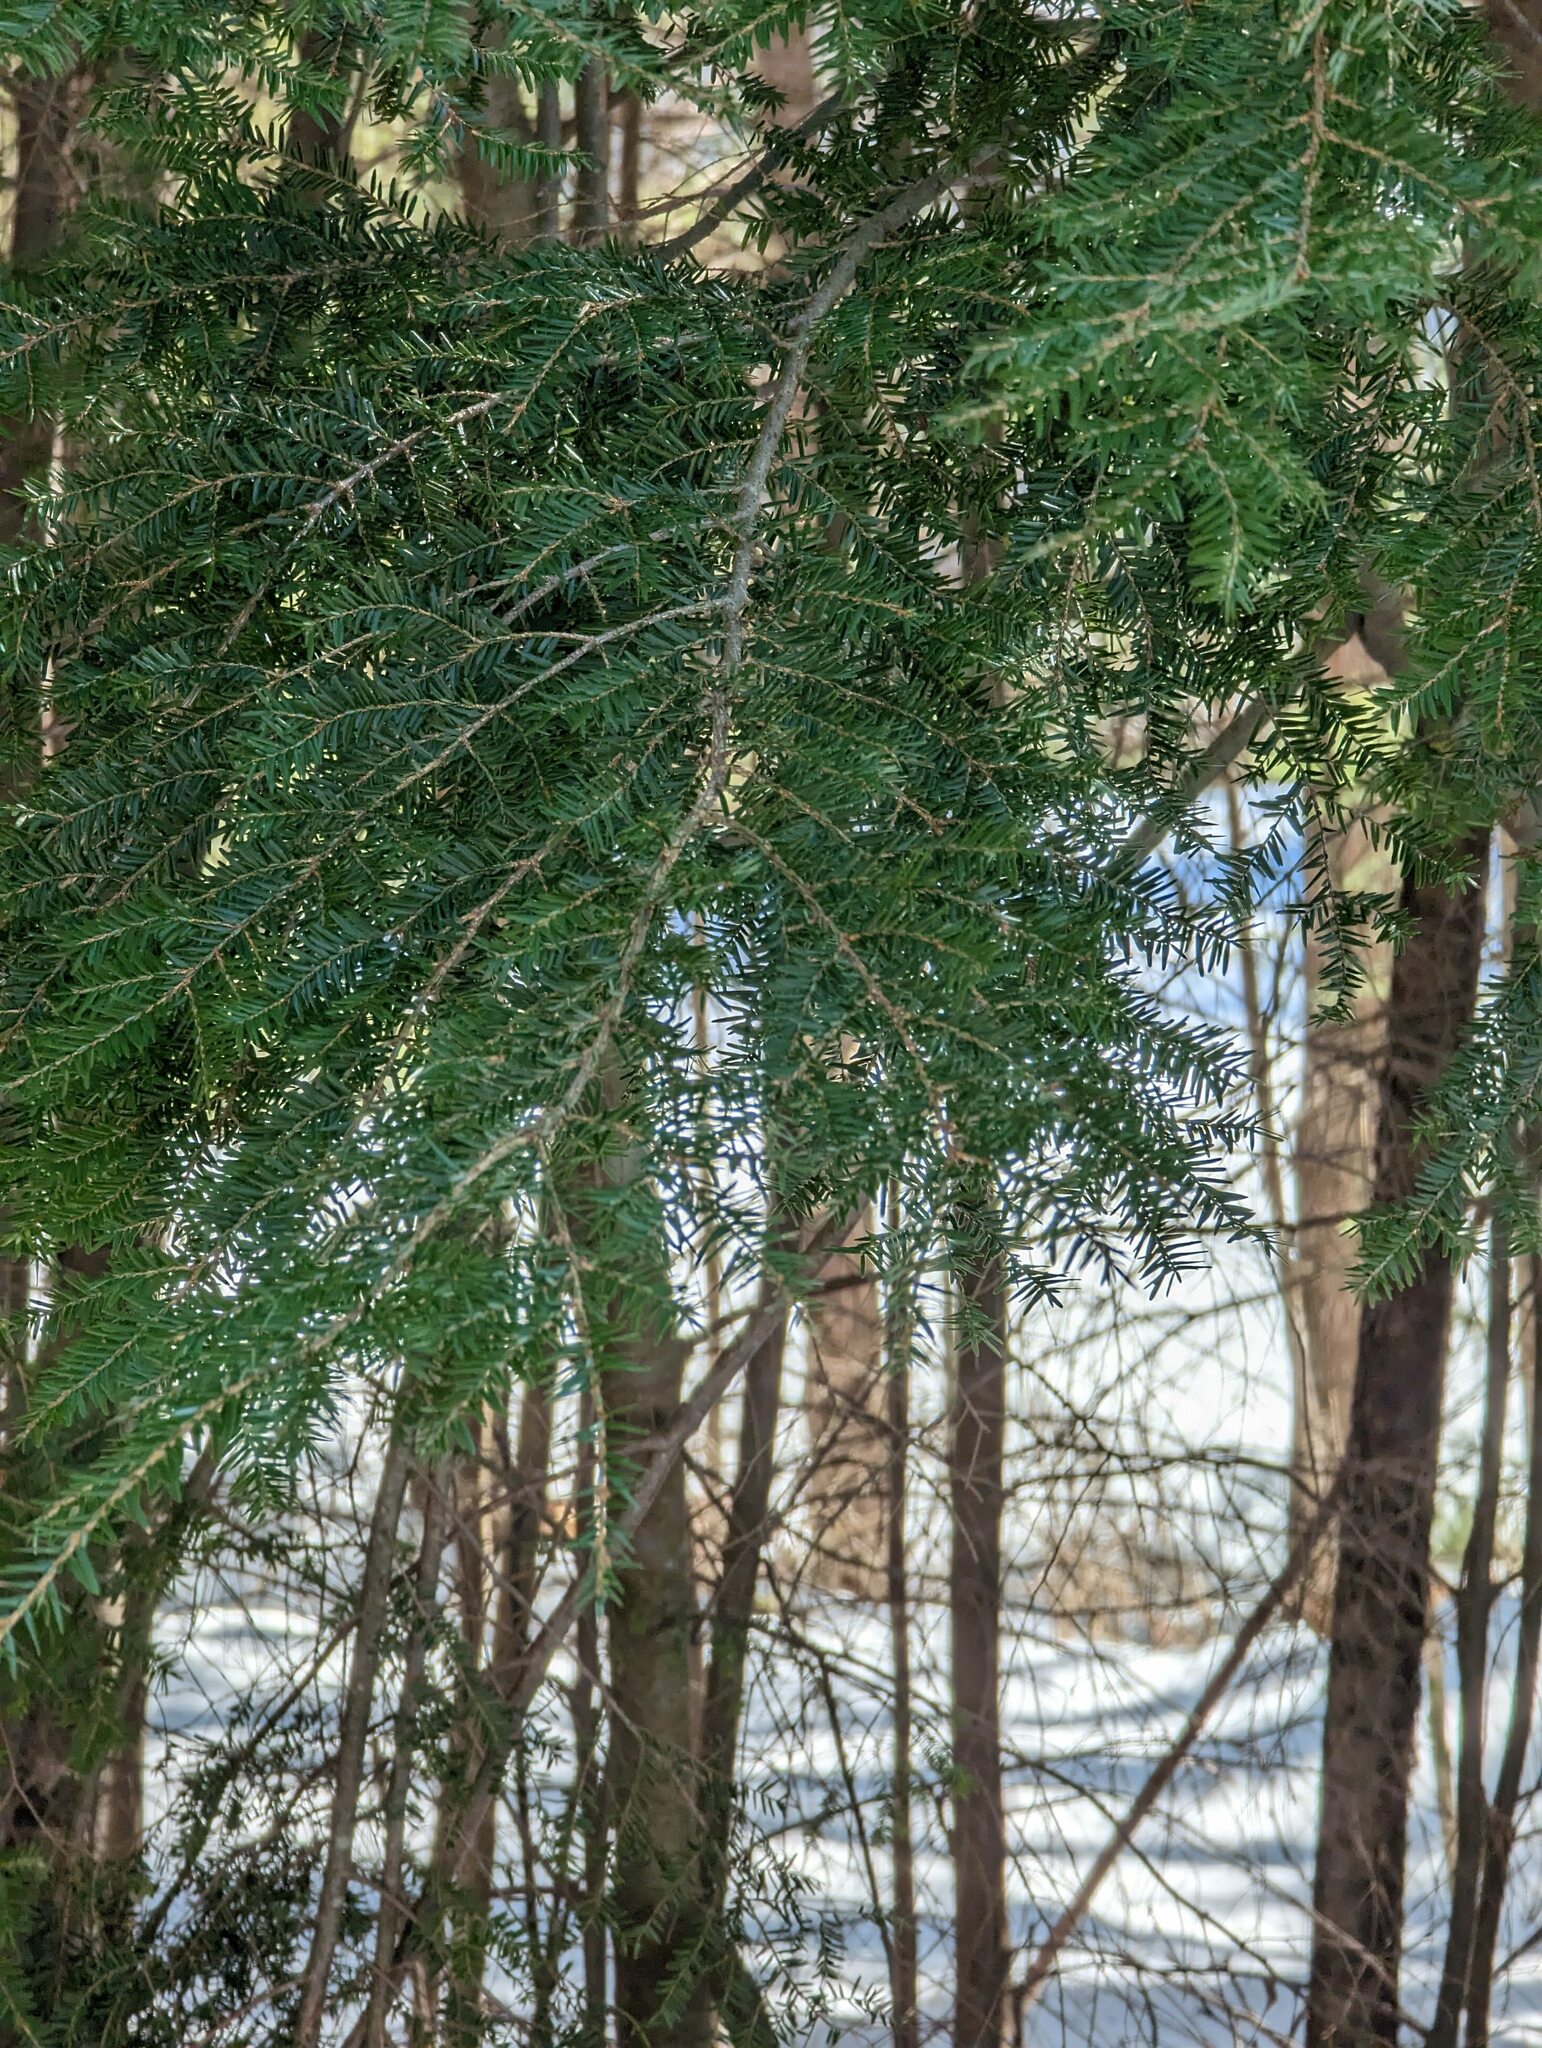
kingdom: Plantae
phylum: Tracheophyta
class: Pinopsida
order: Pinales
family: Pinaceae
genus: Tsuga
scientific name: Tsuga canadensis
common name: Eastern hemlock
